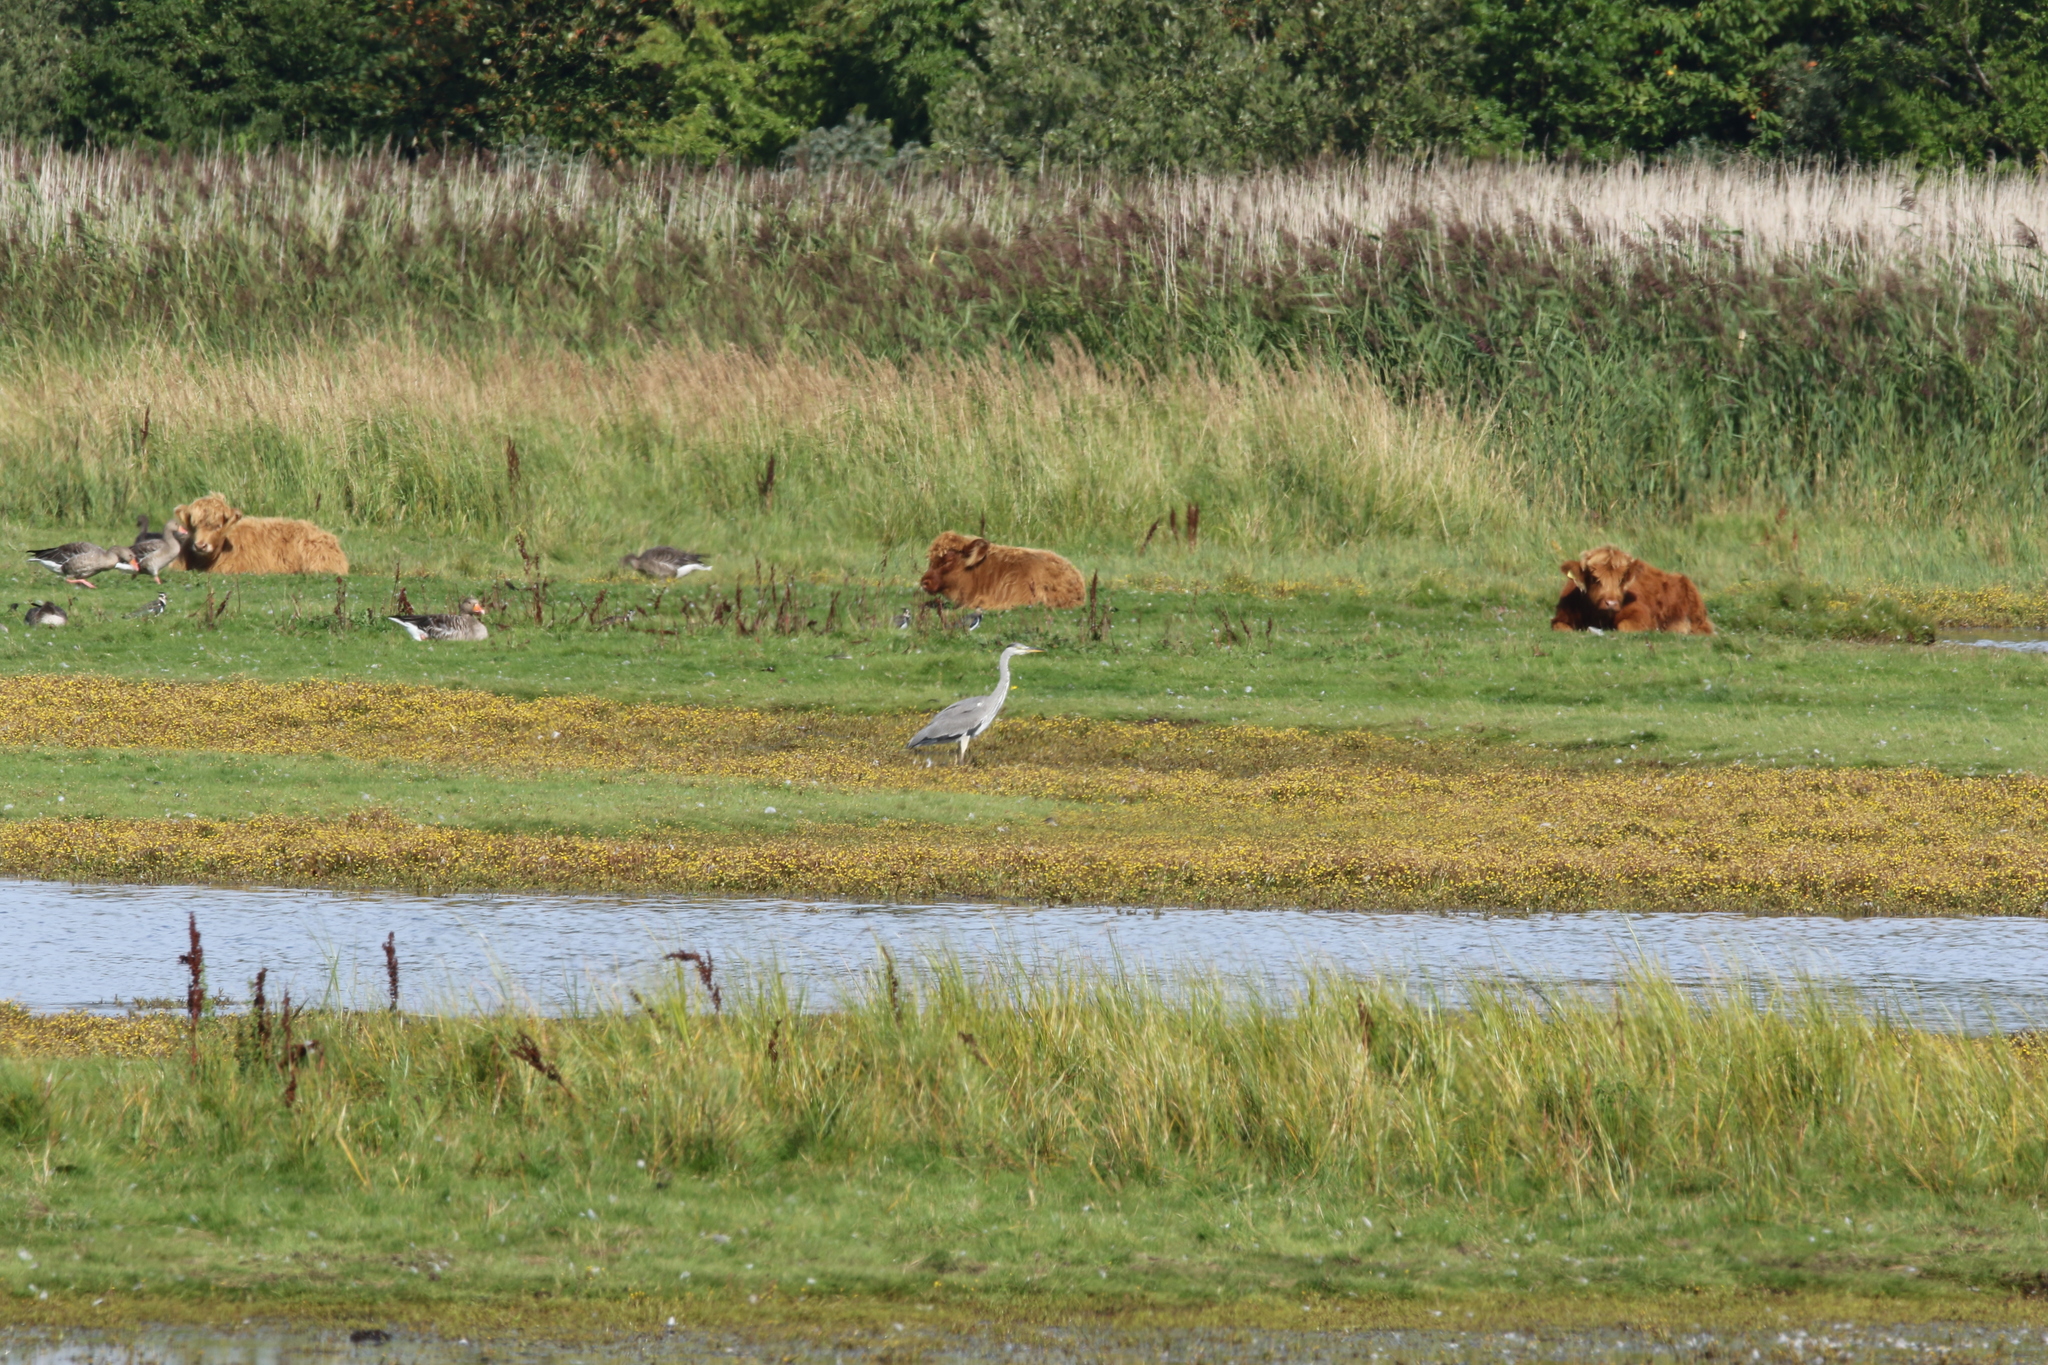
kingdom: Animalia
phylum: Chordata
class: Aves
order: Pelecaniformes
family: Ardeidae
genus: Ardea
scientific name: Ardea cinerea
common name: Grey heron
